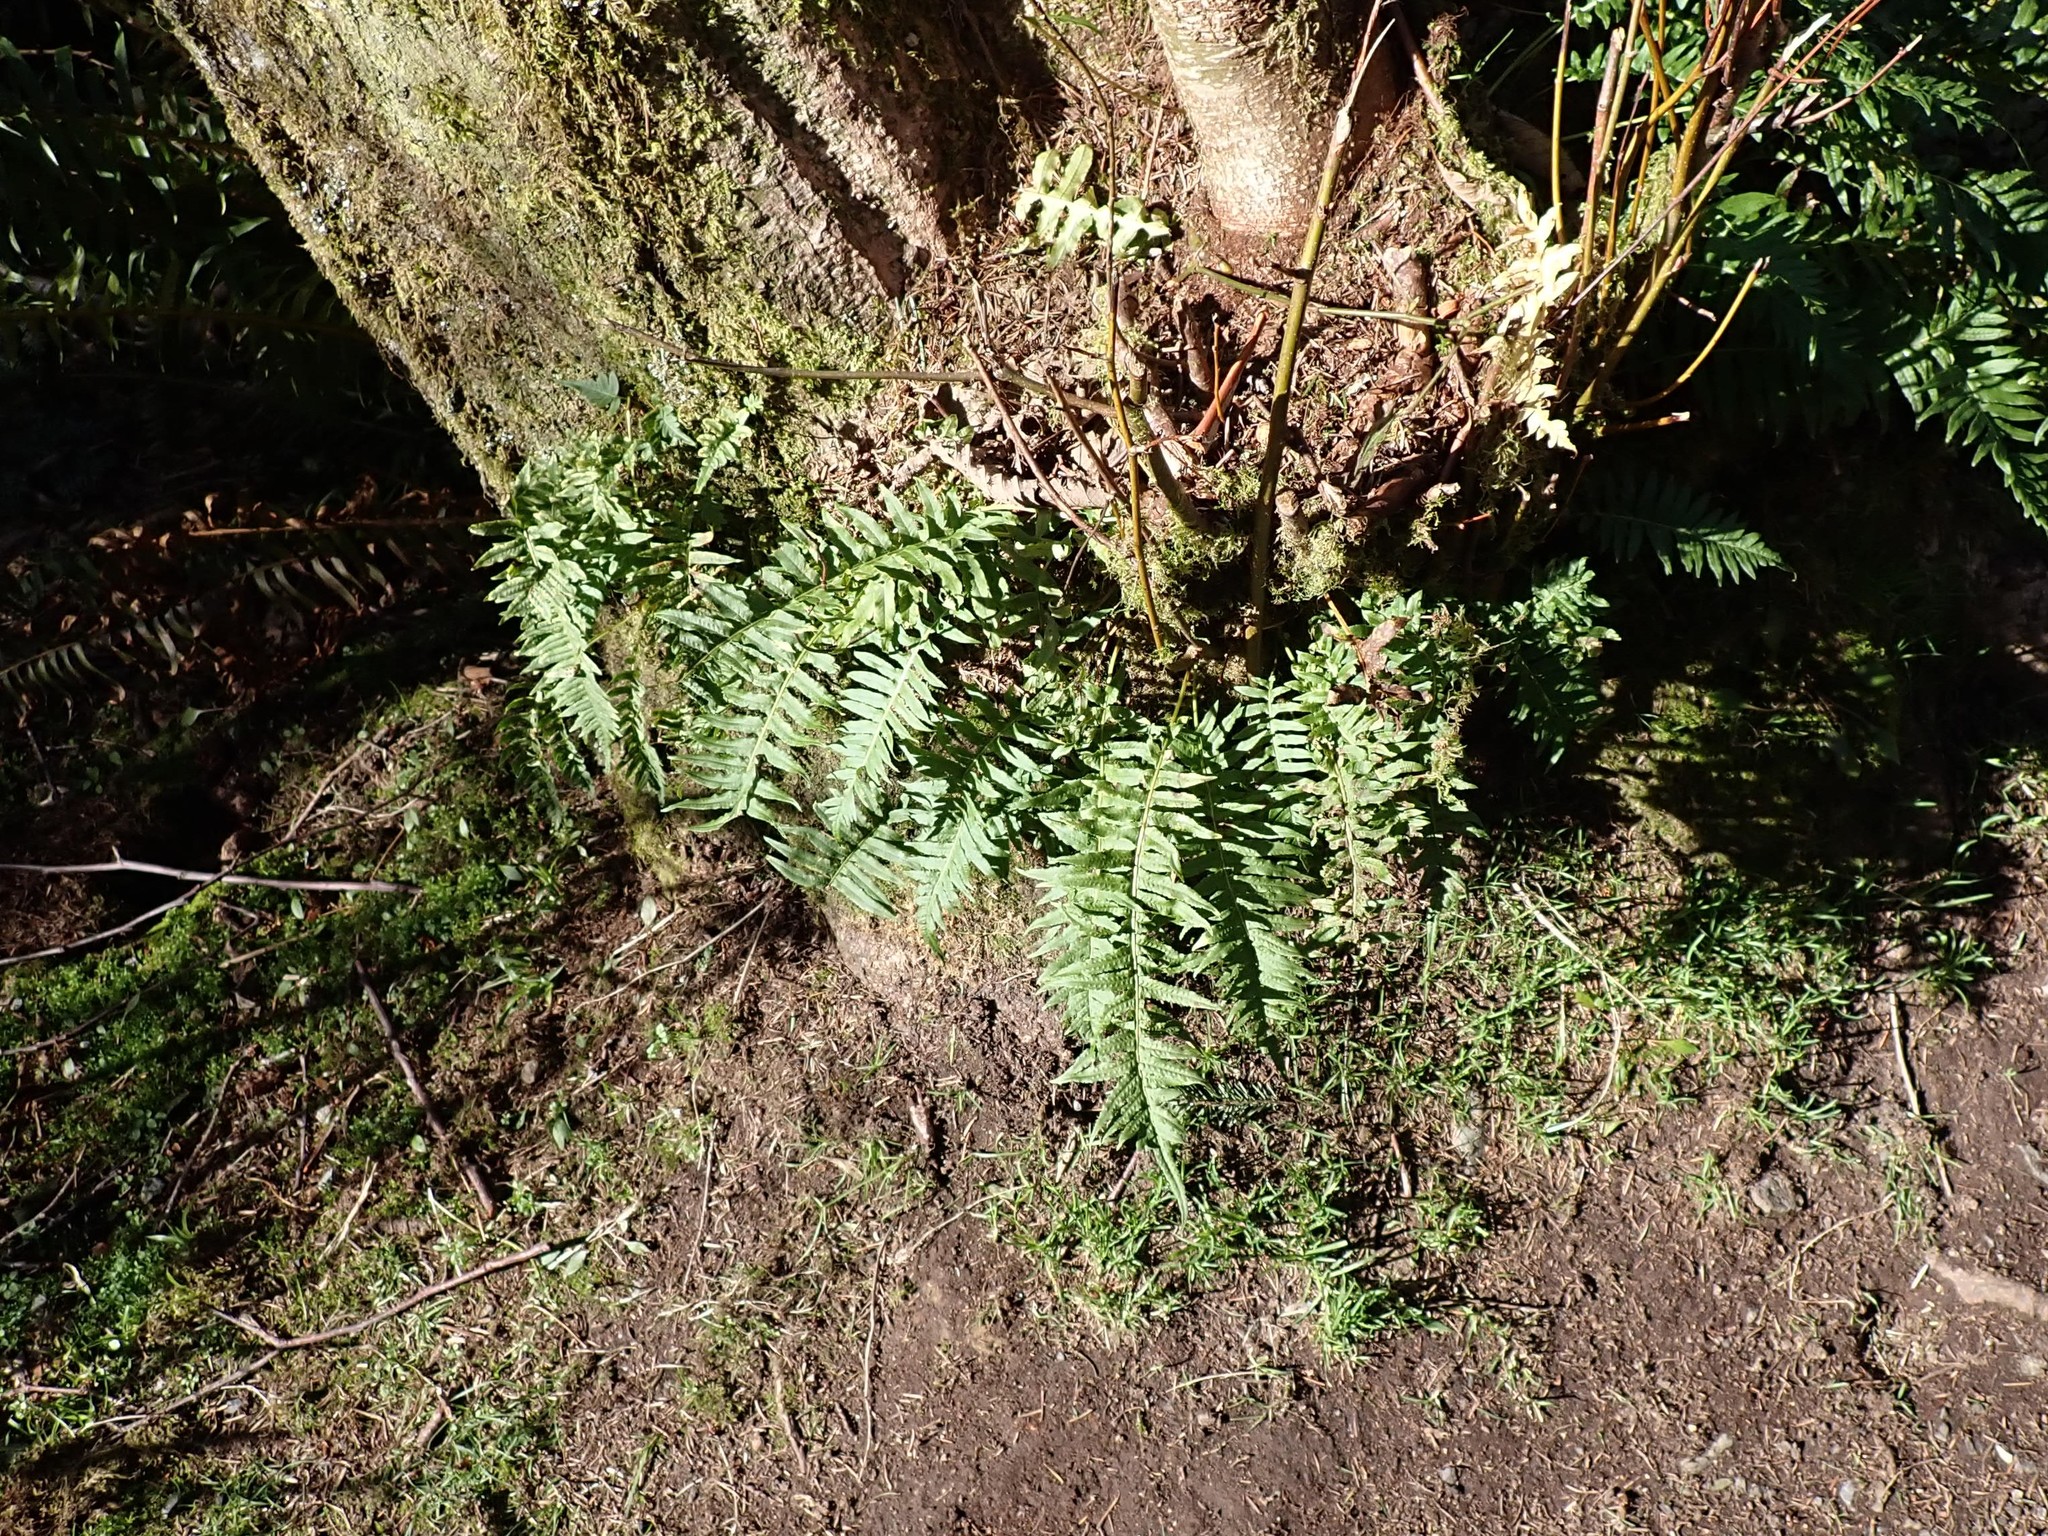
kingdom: Plantae
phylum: Tracheophyta
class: Polypodiopsida
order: Polypodiales
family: Polypodiaceae
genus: Polypodium
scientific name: Polypodium glycyrrhiza
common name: Licorice fern
